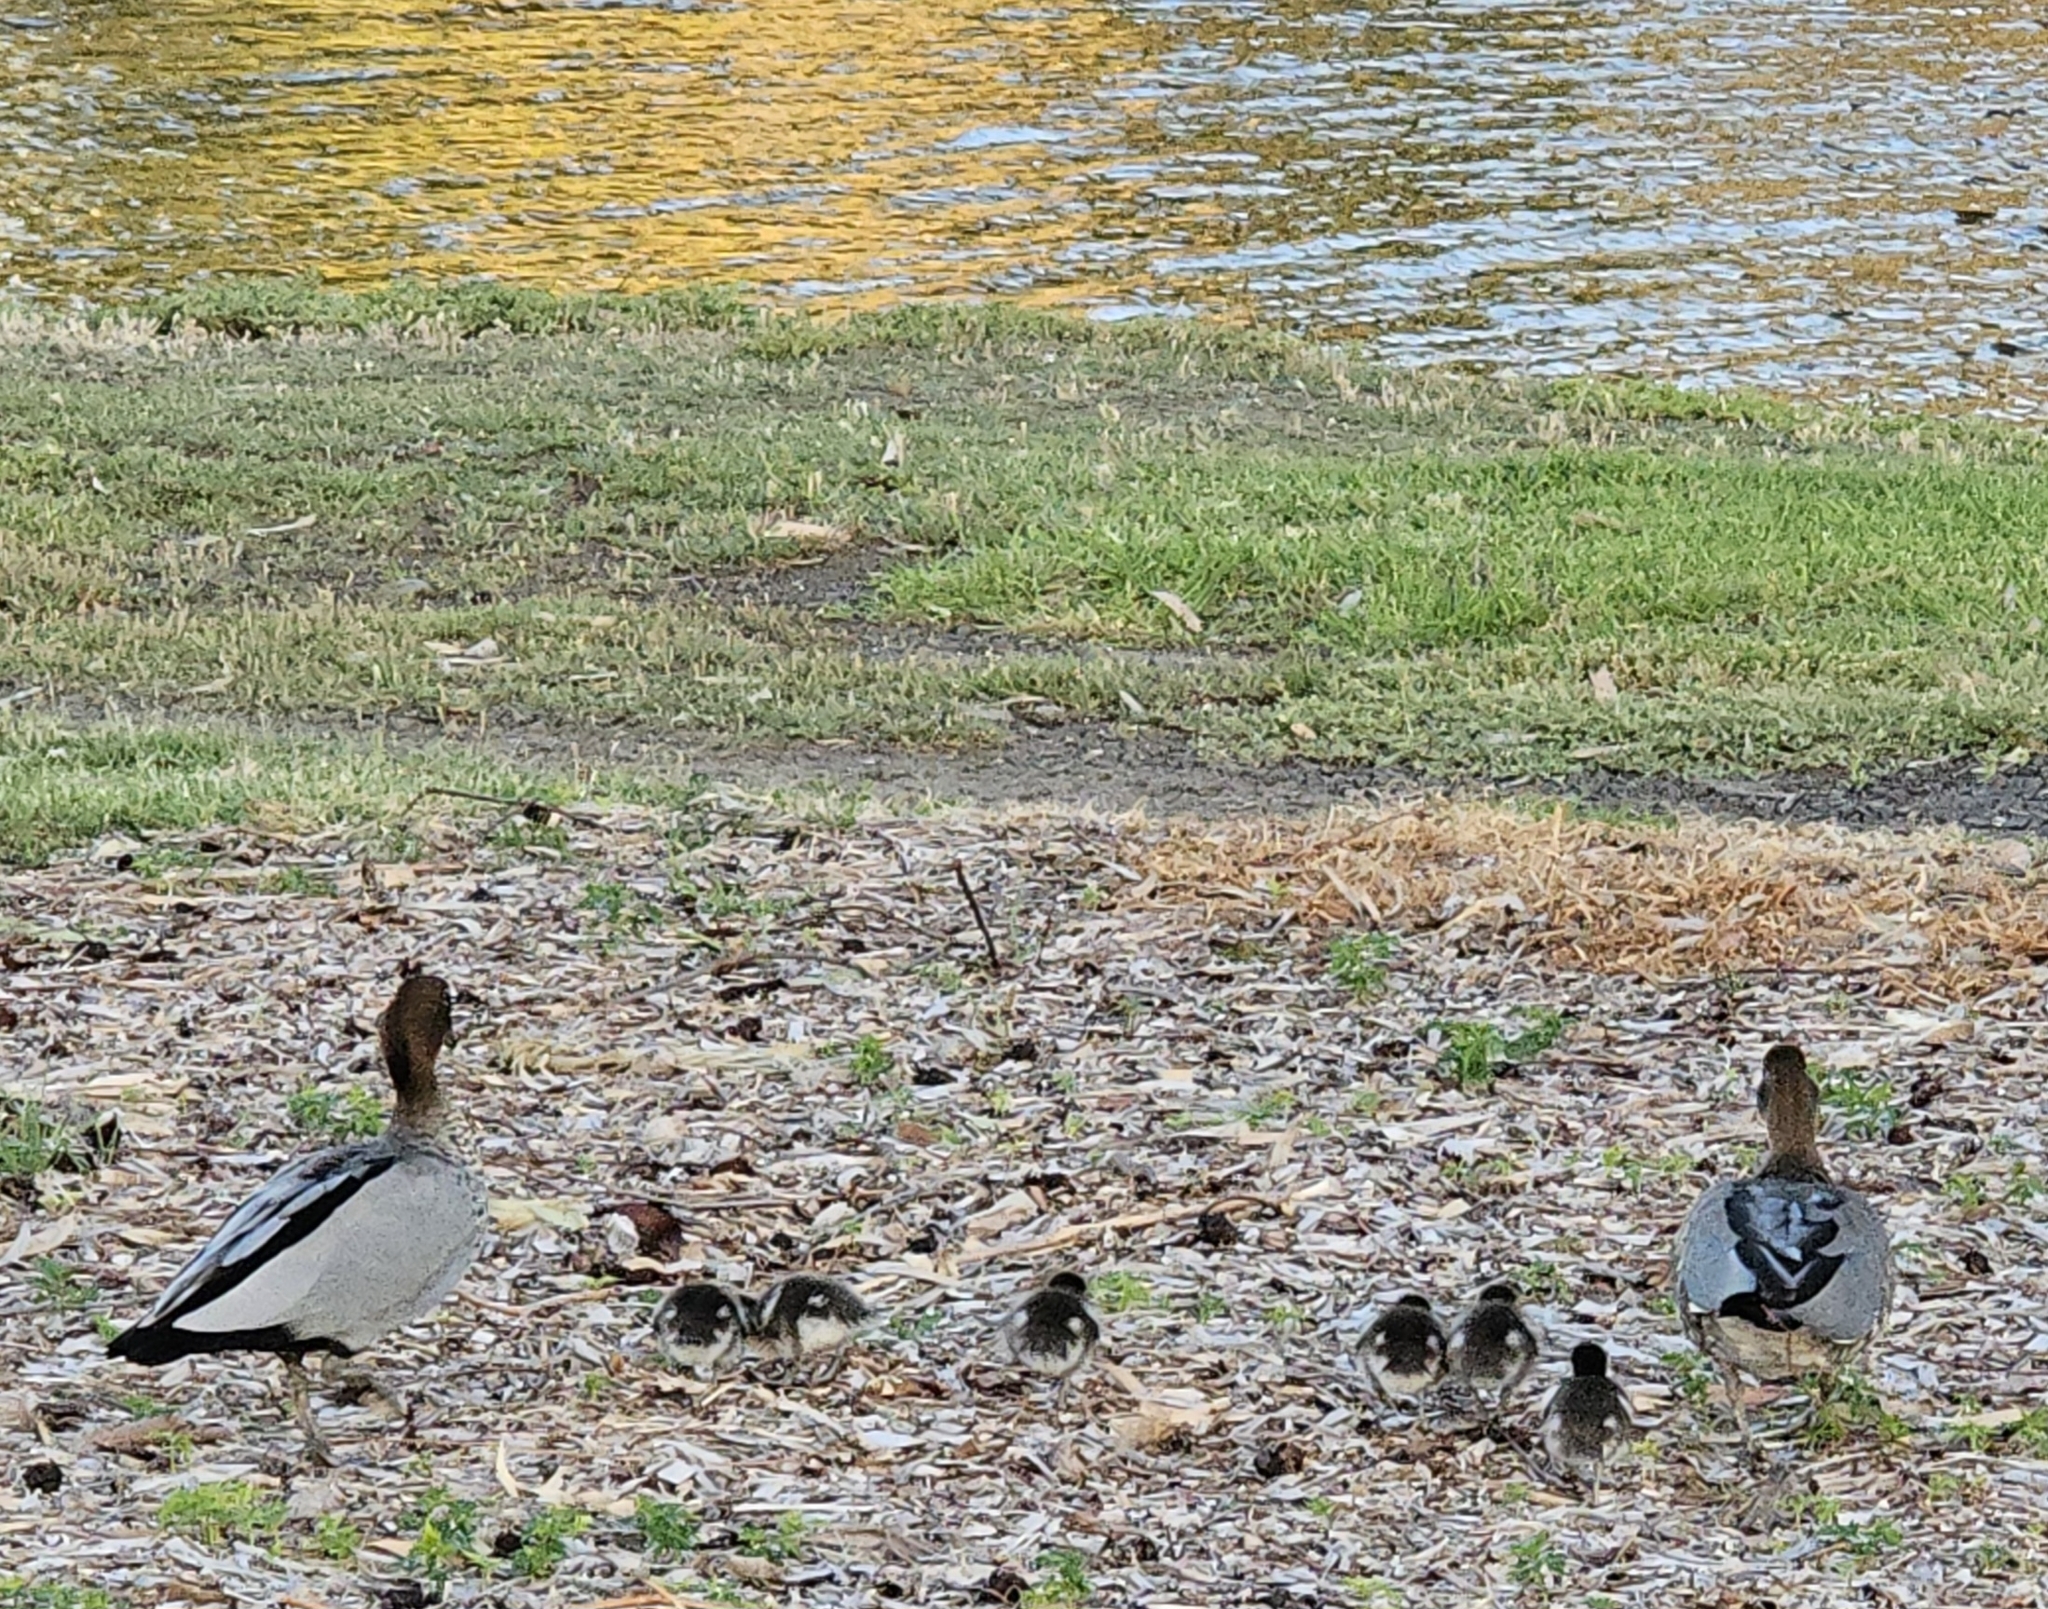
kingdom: Animalia
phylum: Chordata
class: Aves
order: Anseriformes
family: Anatidae
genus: Chenonetta
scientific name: Chenonetta jubata
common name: Maned duck
